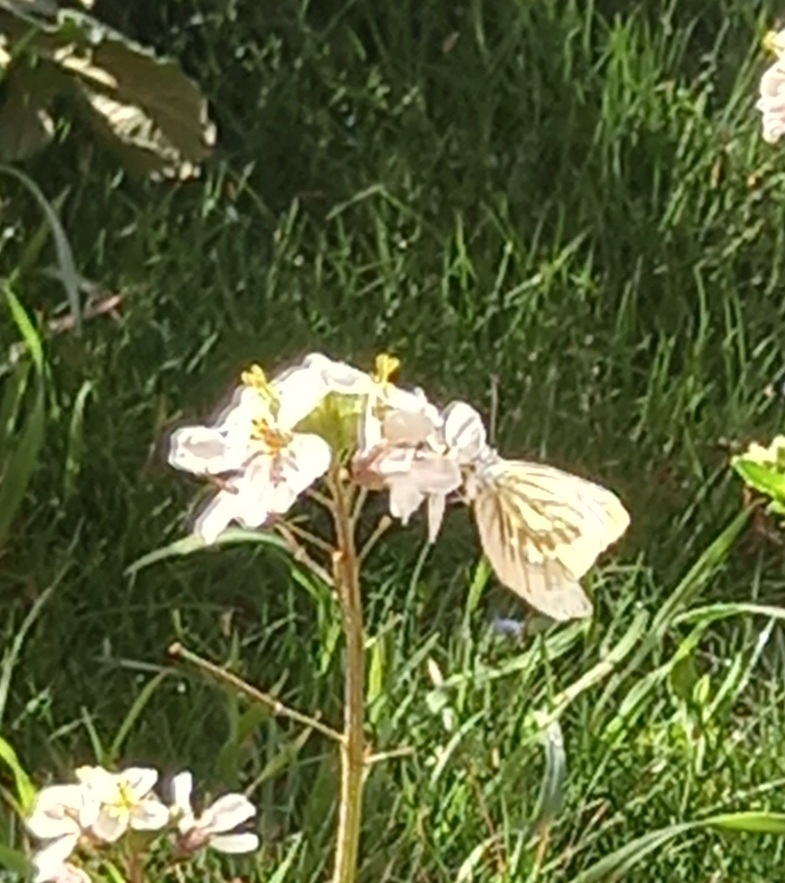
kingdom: Animalia
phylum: Arthropoda
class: Insecta
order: Lepidoptera
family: Pieridae
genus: Pieris
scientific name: Pieris napi
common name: Green-veined white
